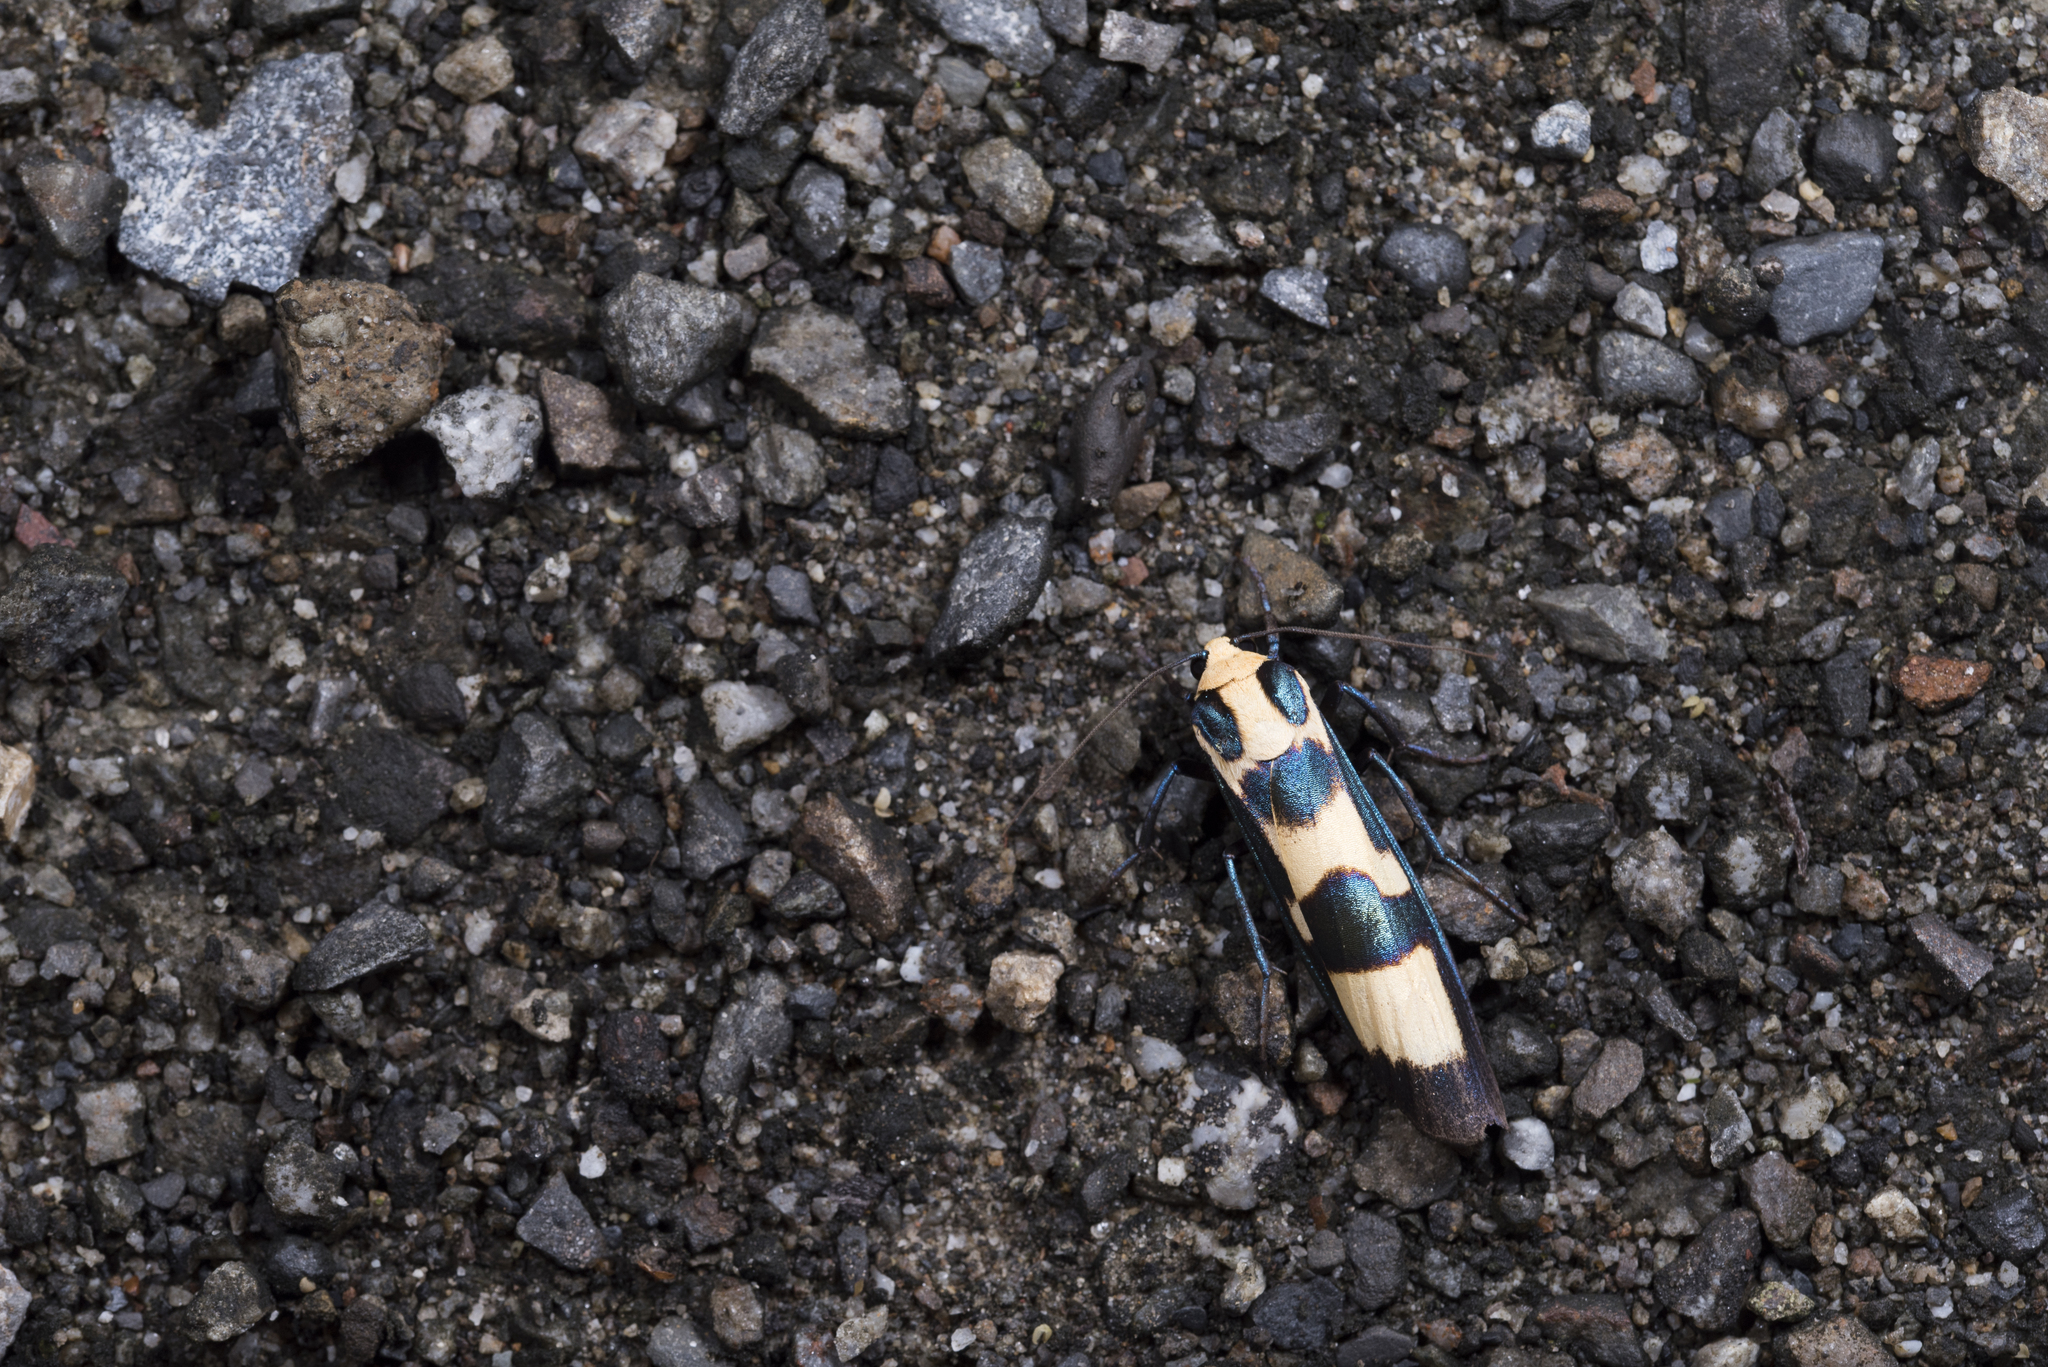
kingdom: Animalia
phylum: Arthropoda
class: Insecta
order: Lepidoptera
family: Erebidae
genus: Chrysaeglia
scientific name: Chrysaeglia magnifica
